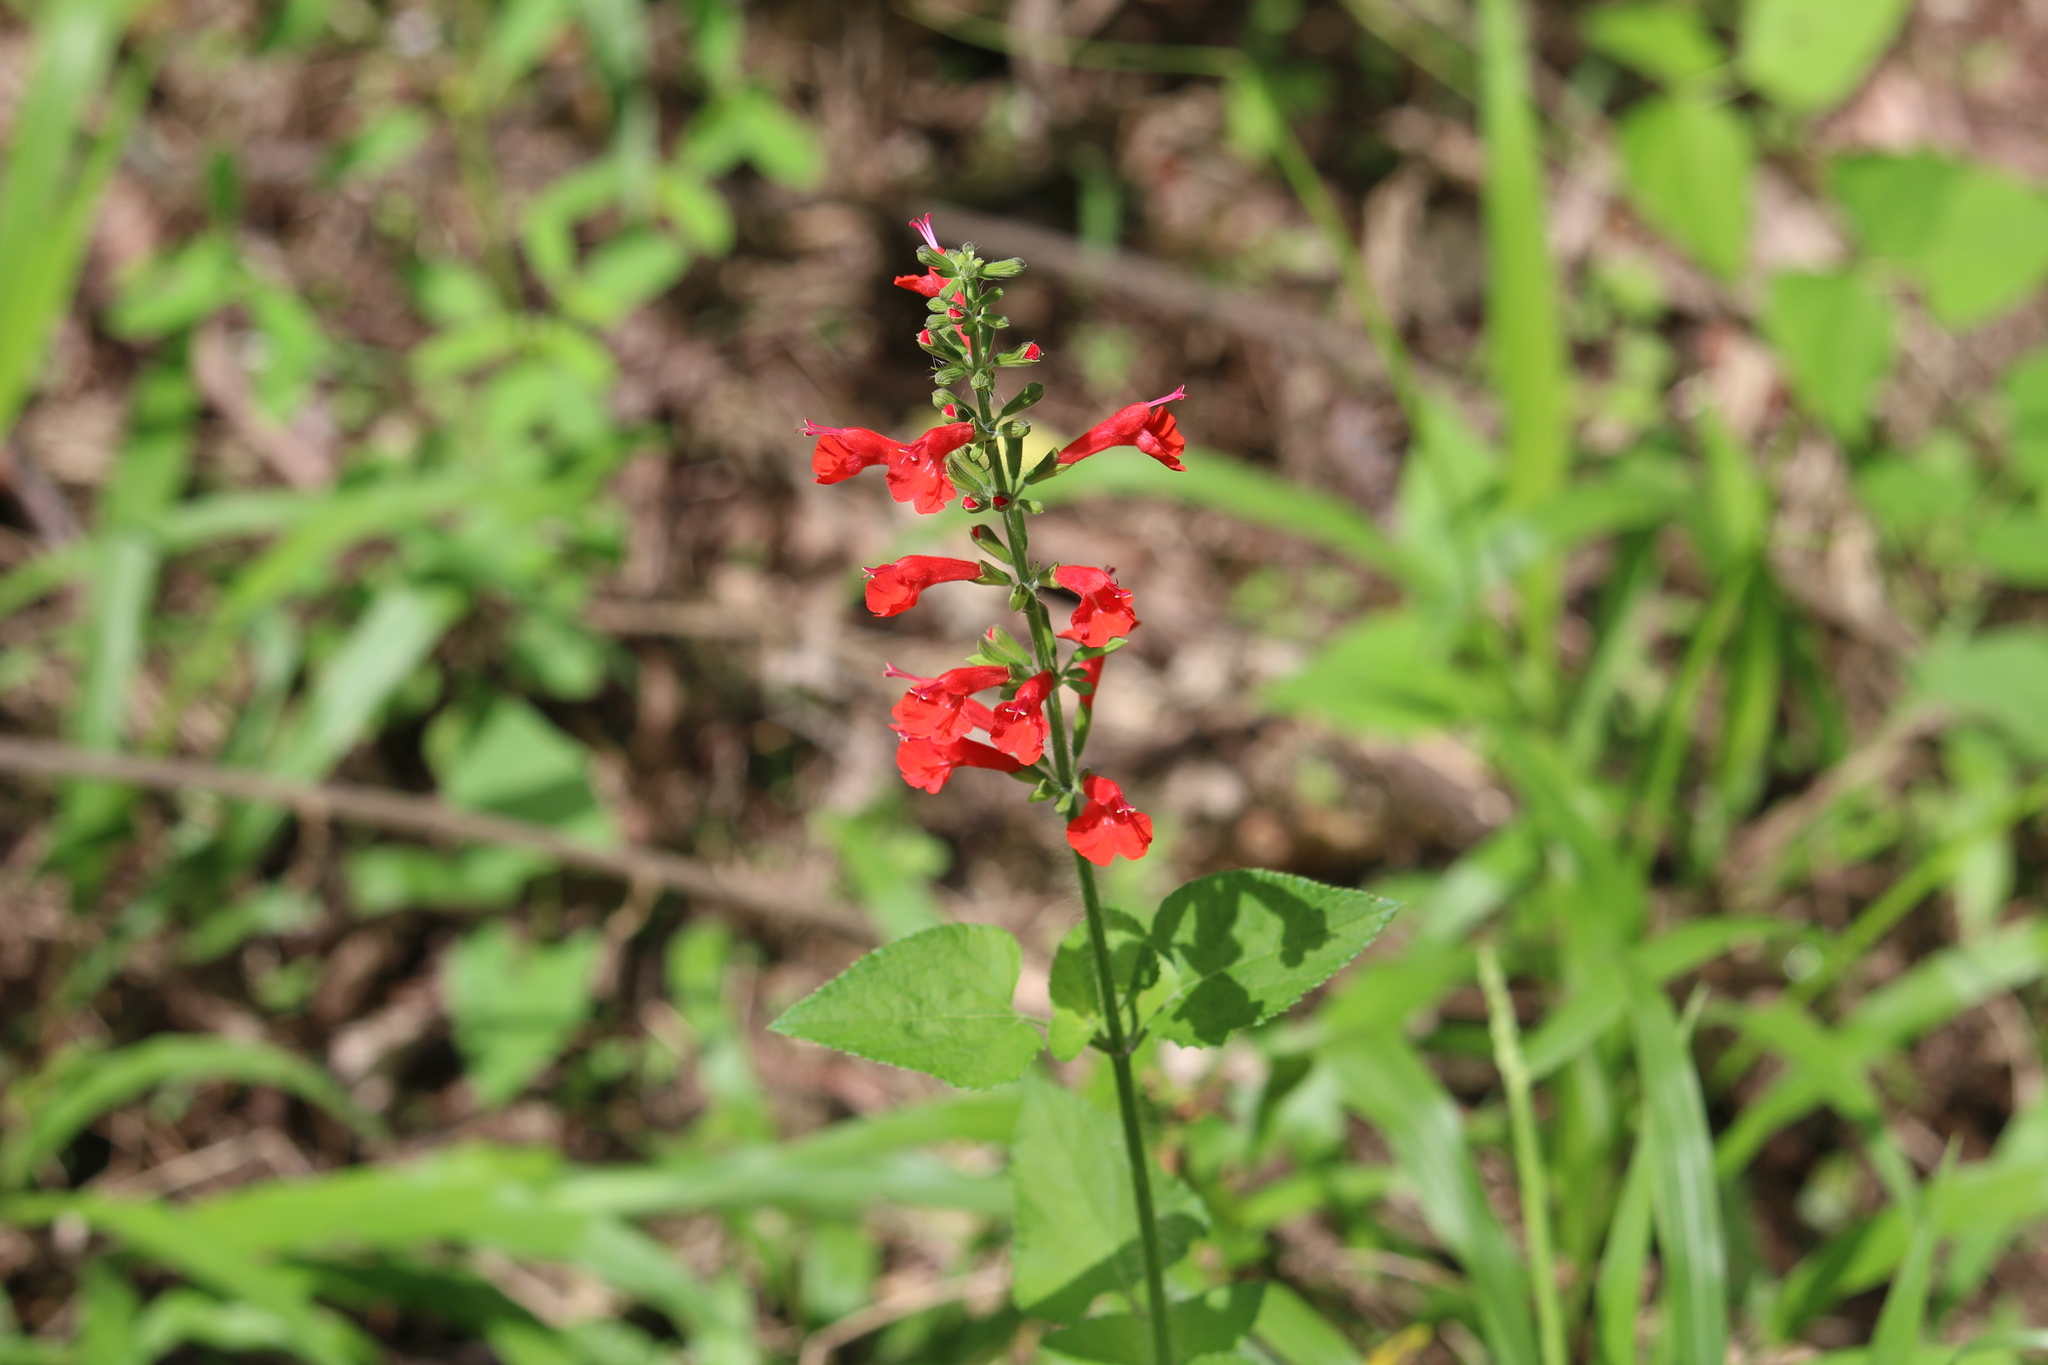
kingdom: Plantae
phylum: Tracheophyta
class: Magnoliopsida
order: Lamiales
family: Lamiaceae
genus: Salvia
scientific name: Salvia coccinea
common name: Blood sage
